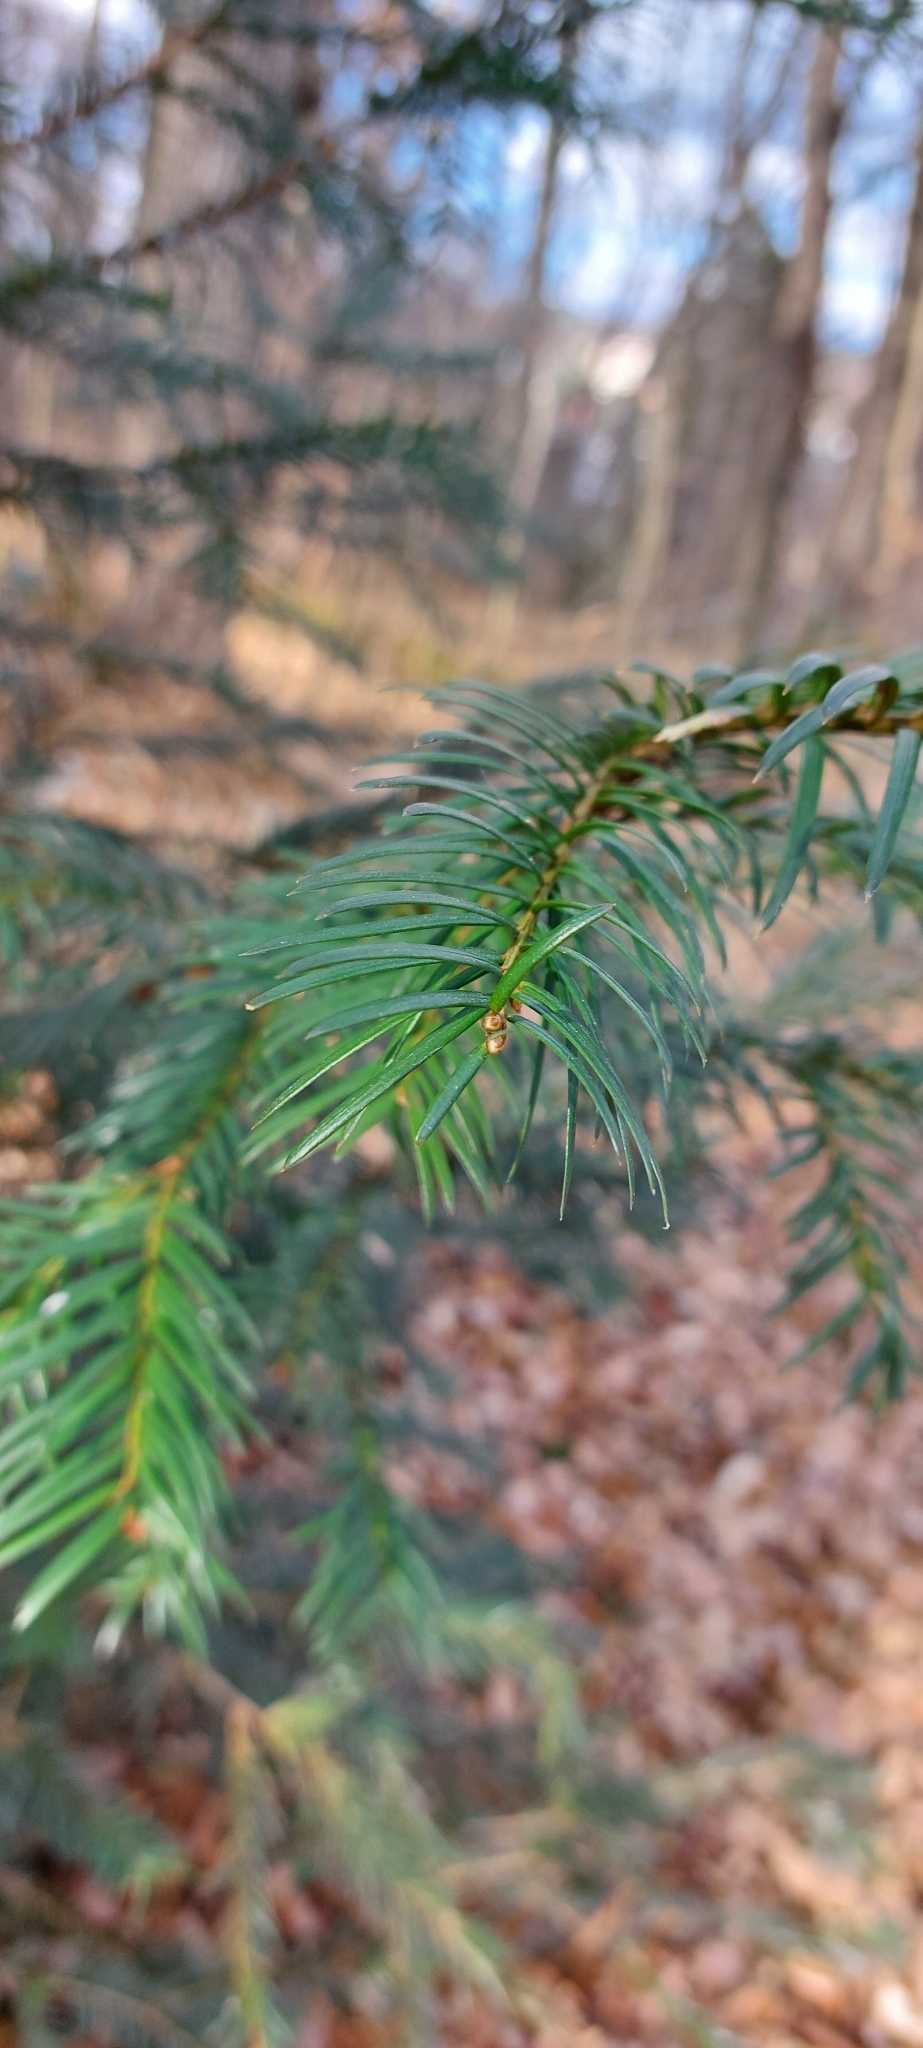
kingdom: Plantae
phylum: Tracheophyta
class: Pinopsida
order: Pinales
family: Taxaceae
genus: Taxus
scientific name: Taxus baccata
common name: Yew
